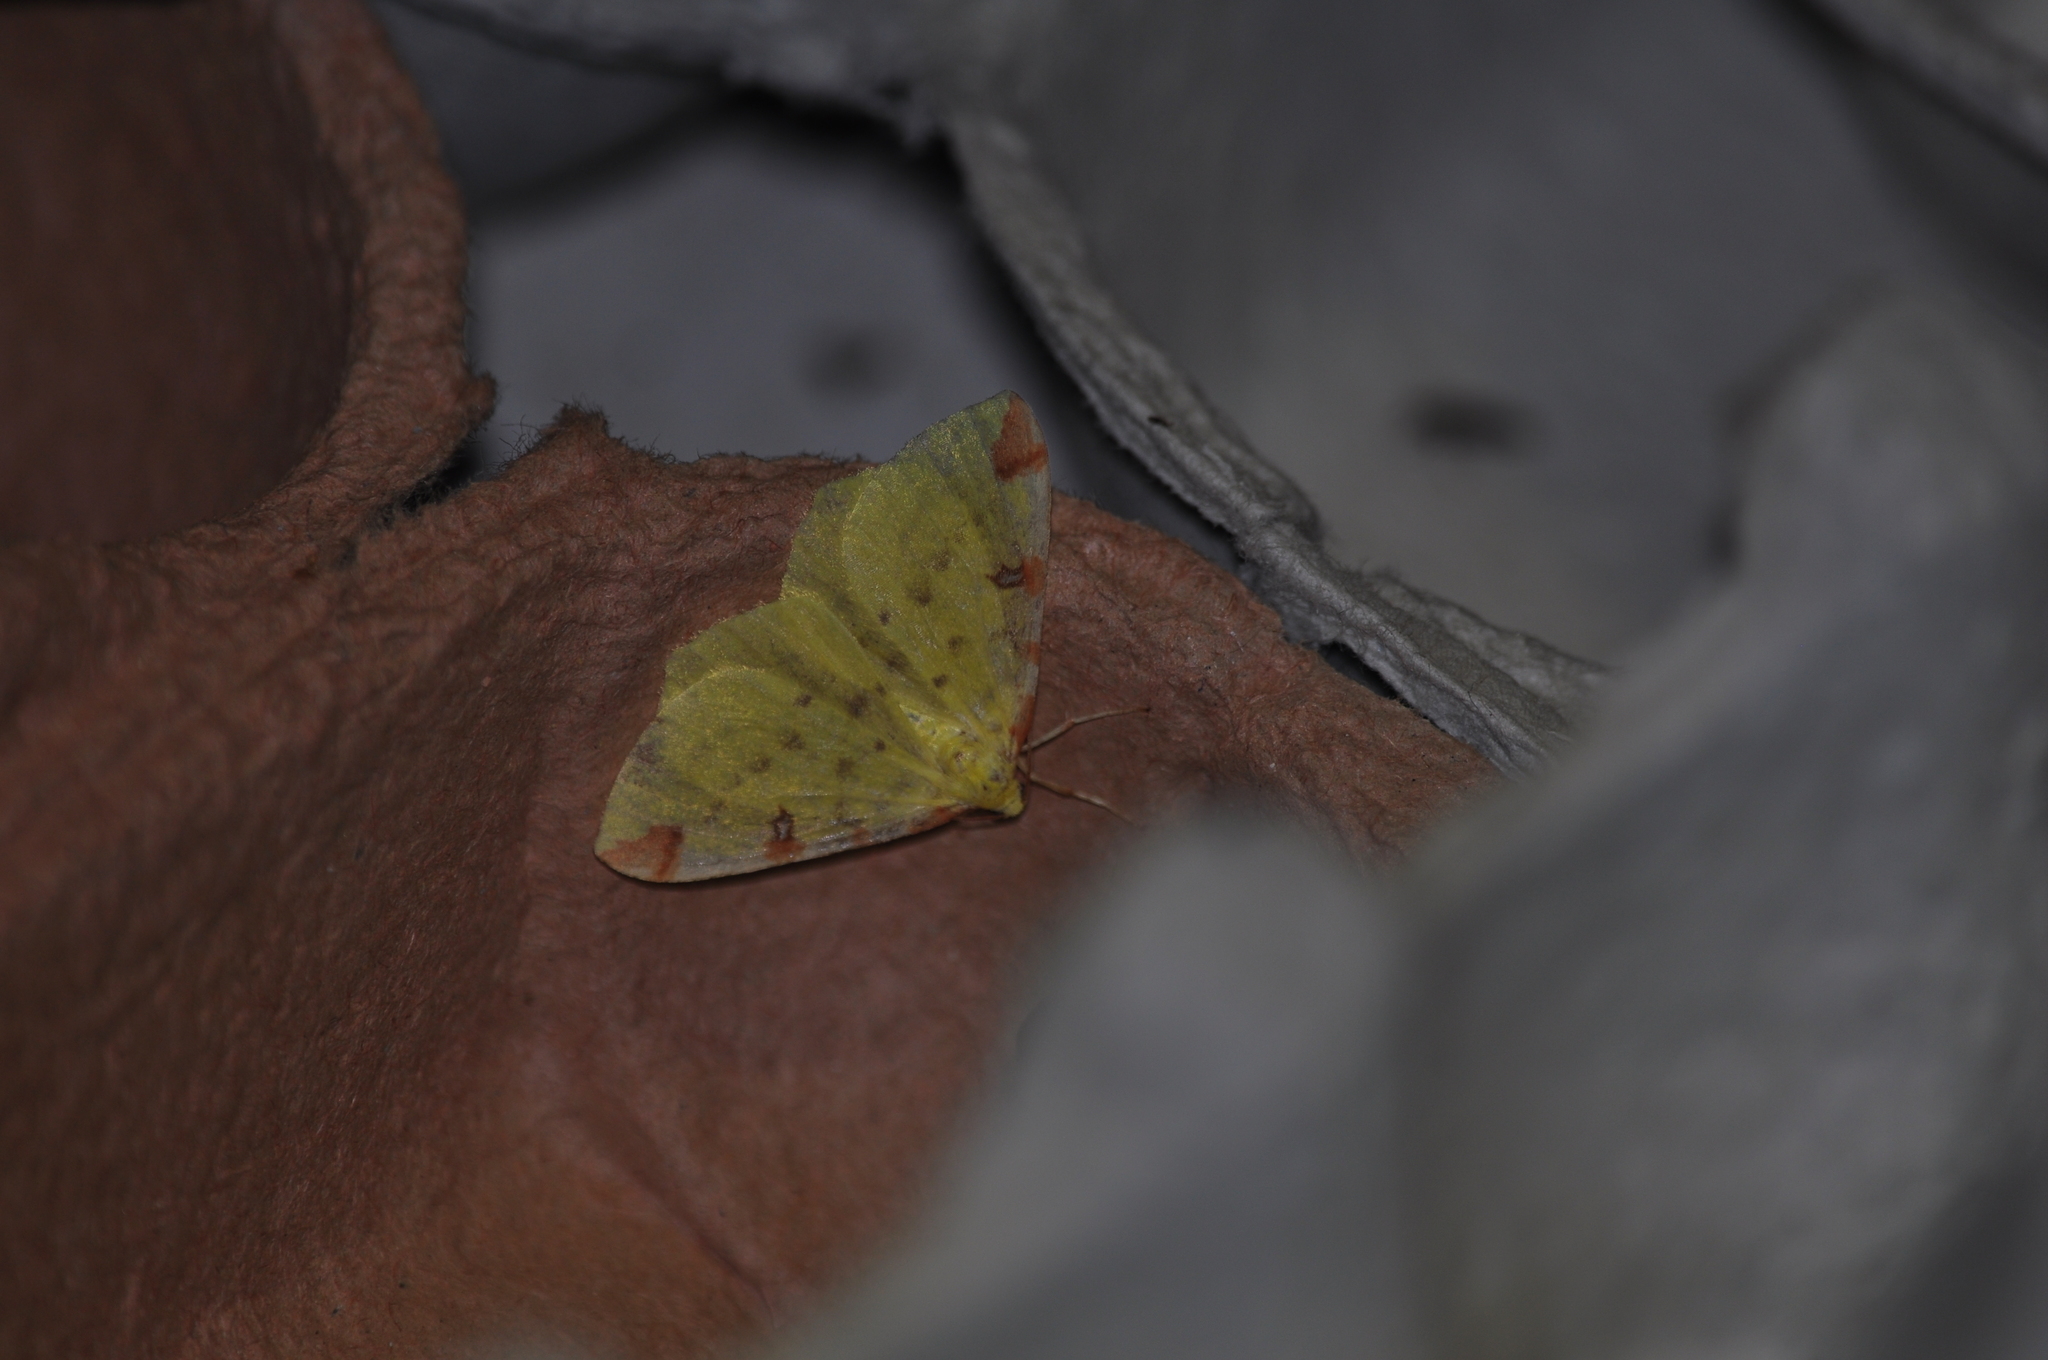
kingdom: Animalia
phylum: Arthropoda
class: Insecta
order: Lepidoptera
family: Geometridae
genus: Opisthograptis
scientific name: Opisthograptis luteolata
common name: Brimstone moth
